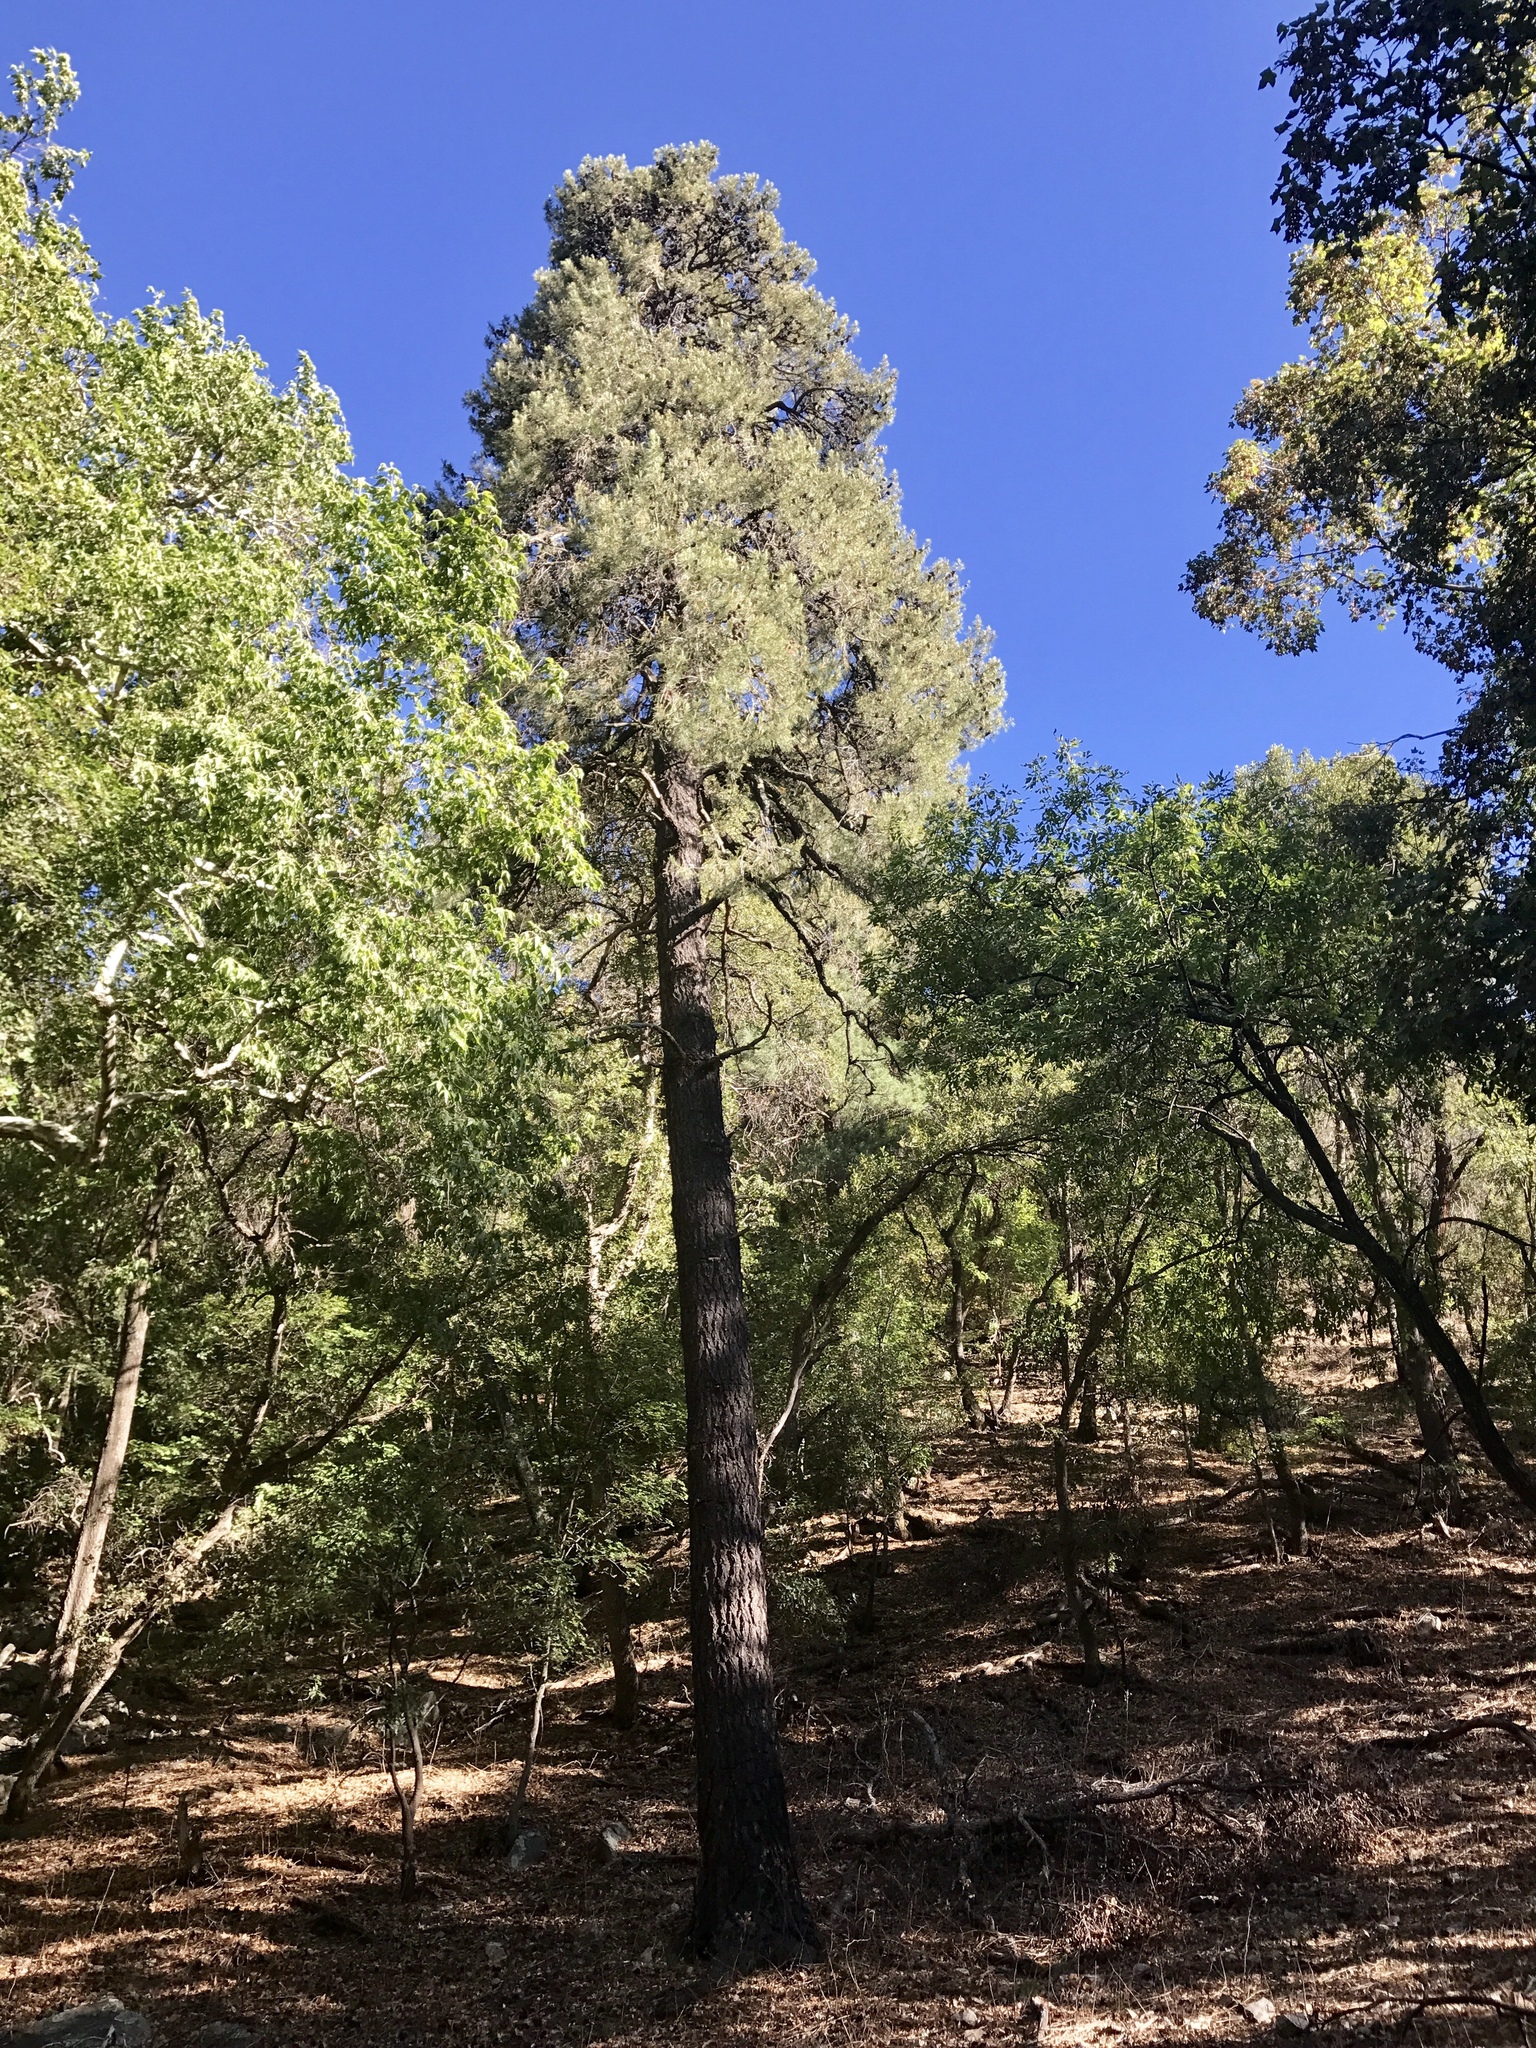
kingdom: Plantae
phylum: Tracheophyta
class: Pinopsida
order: Pinales
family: Pinaceae
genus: Pinus
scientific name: Pinus leiophylla
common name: Chihuahua pine
